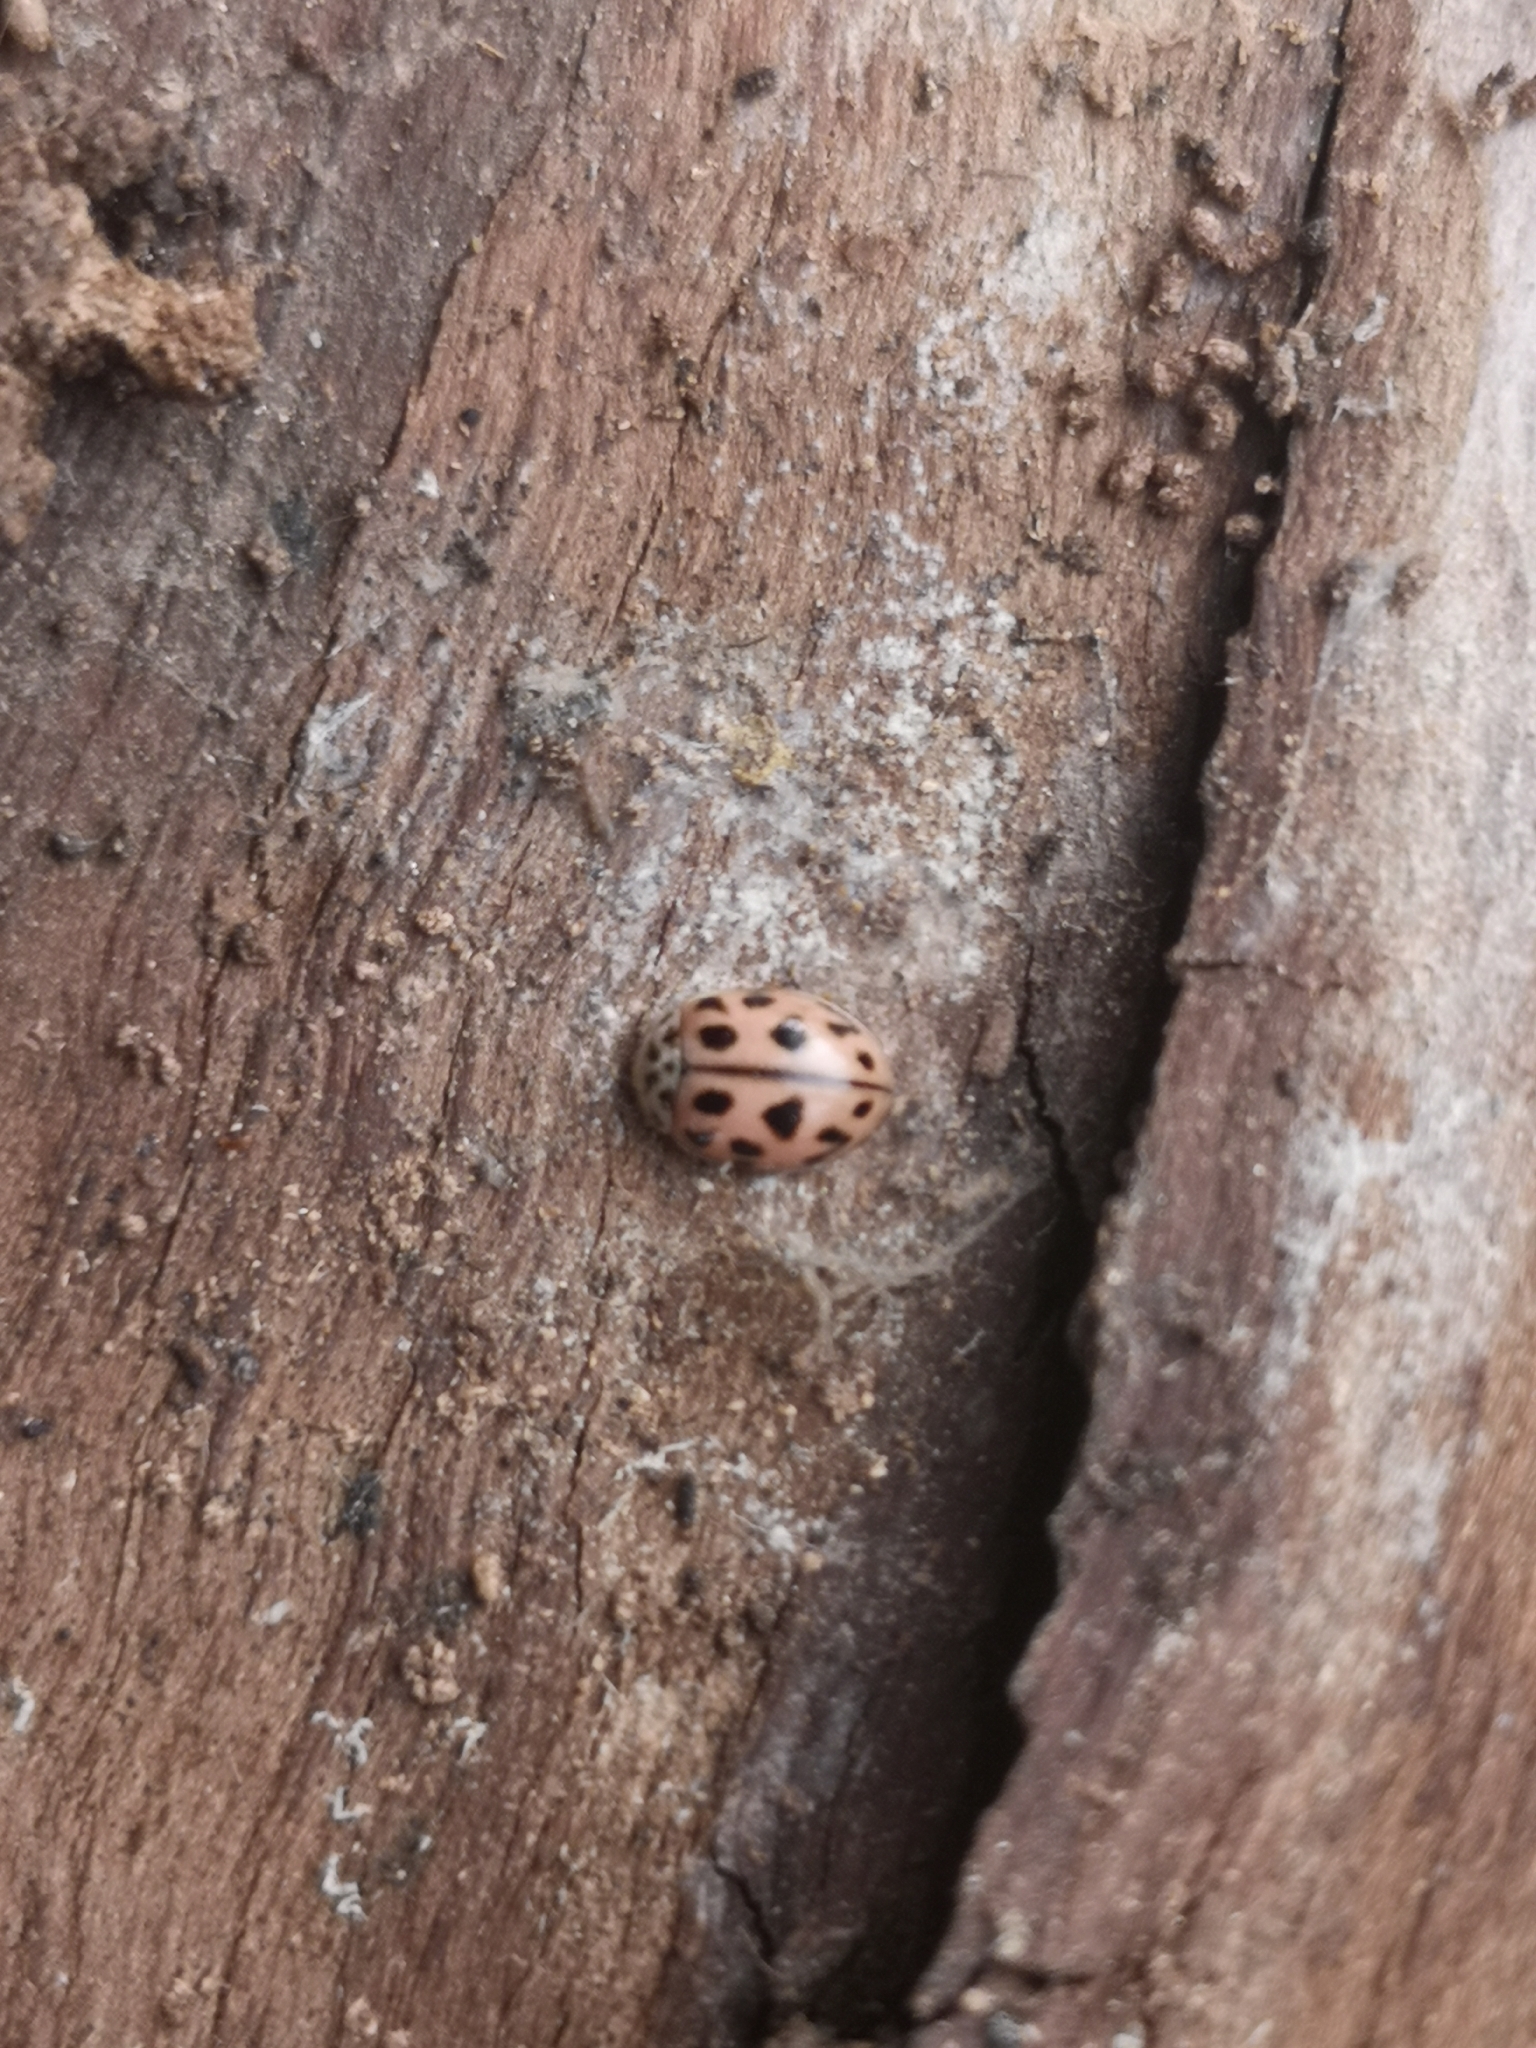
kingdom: Animalia
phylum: Arthropoda
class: Insecta
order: Coleoptera
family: Coccinellidae
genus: Oenopia
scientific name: Oenopia conglobata
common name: Ladybird beetle
